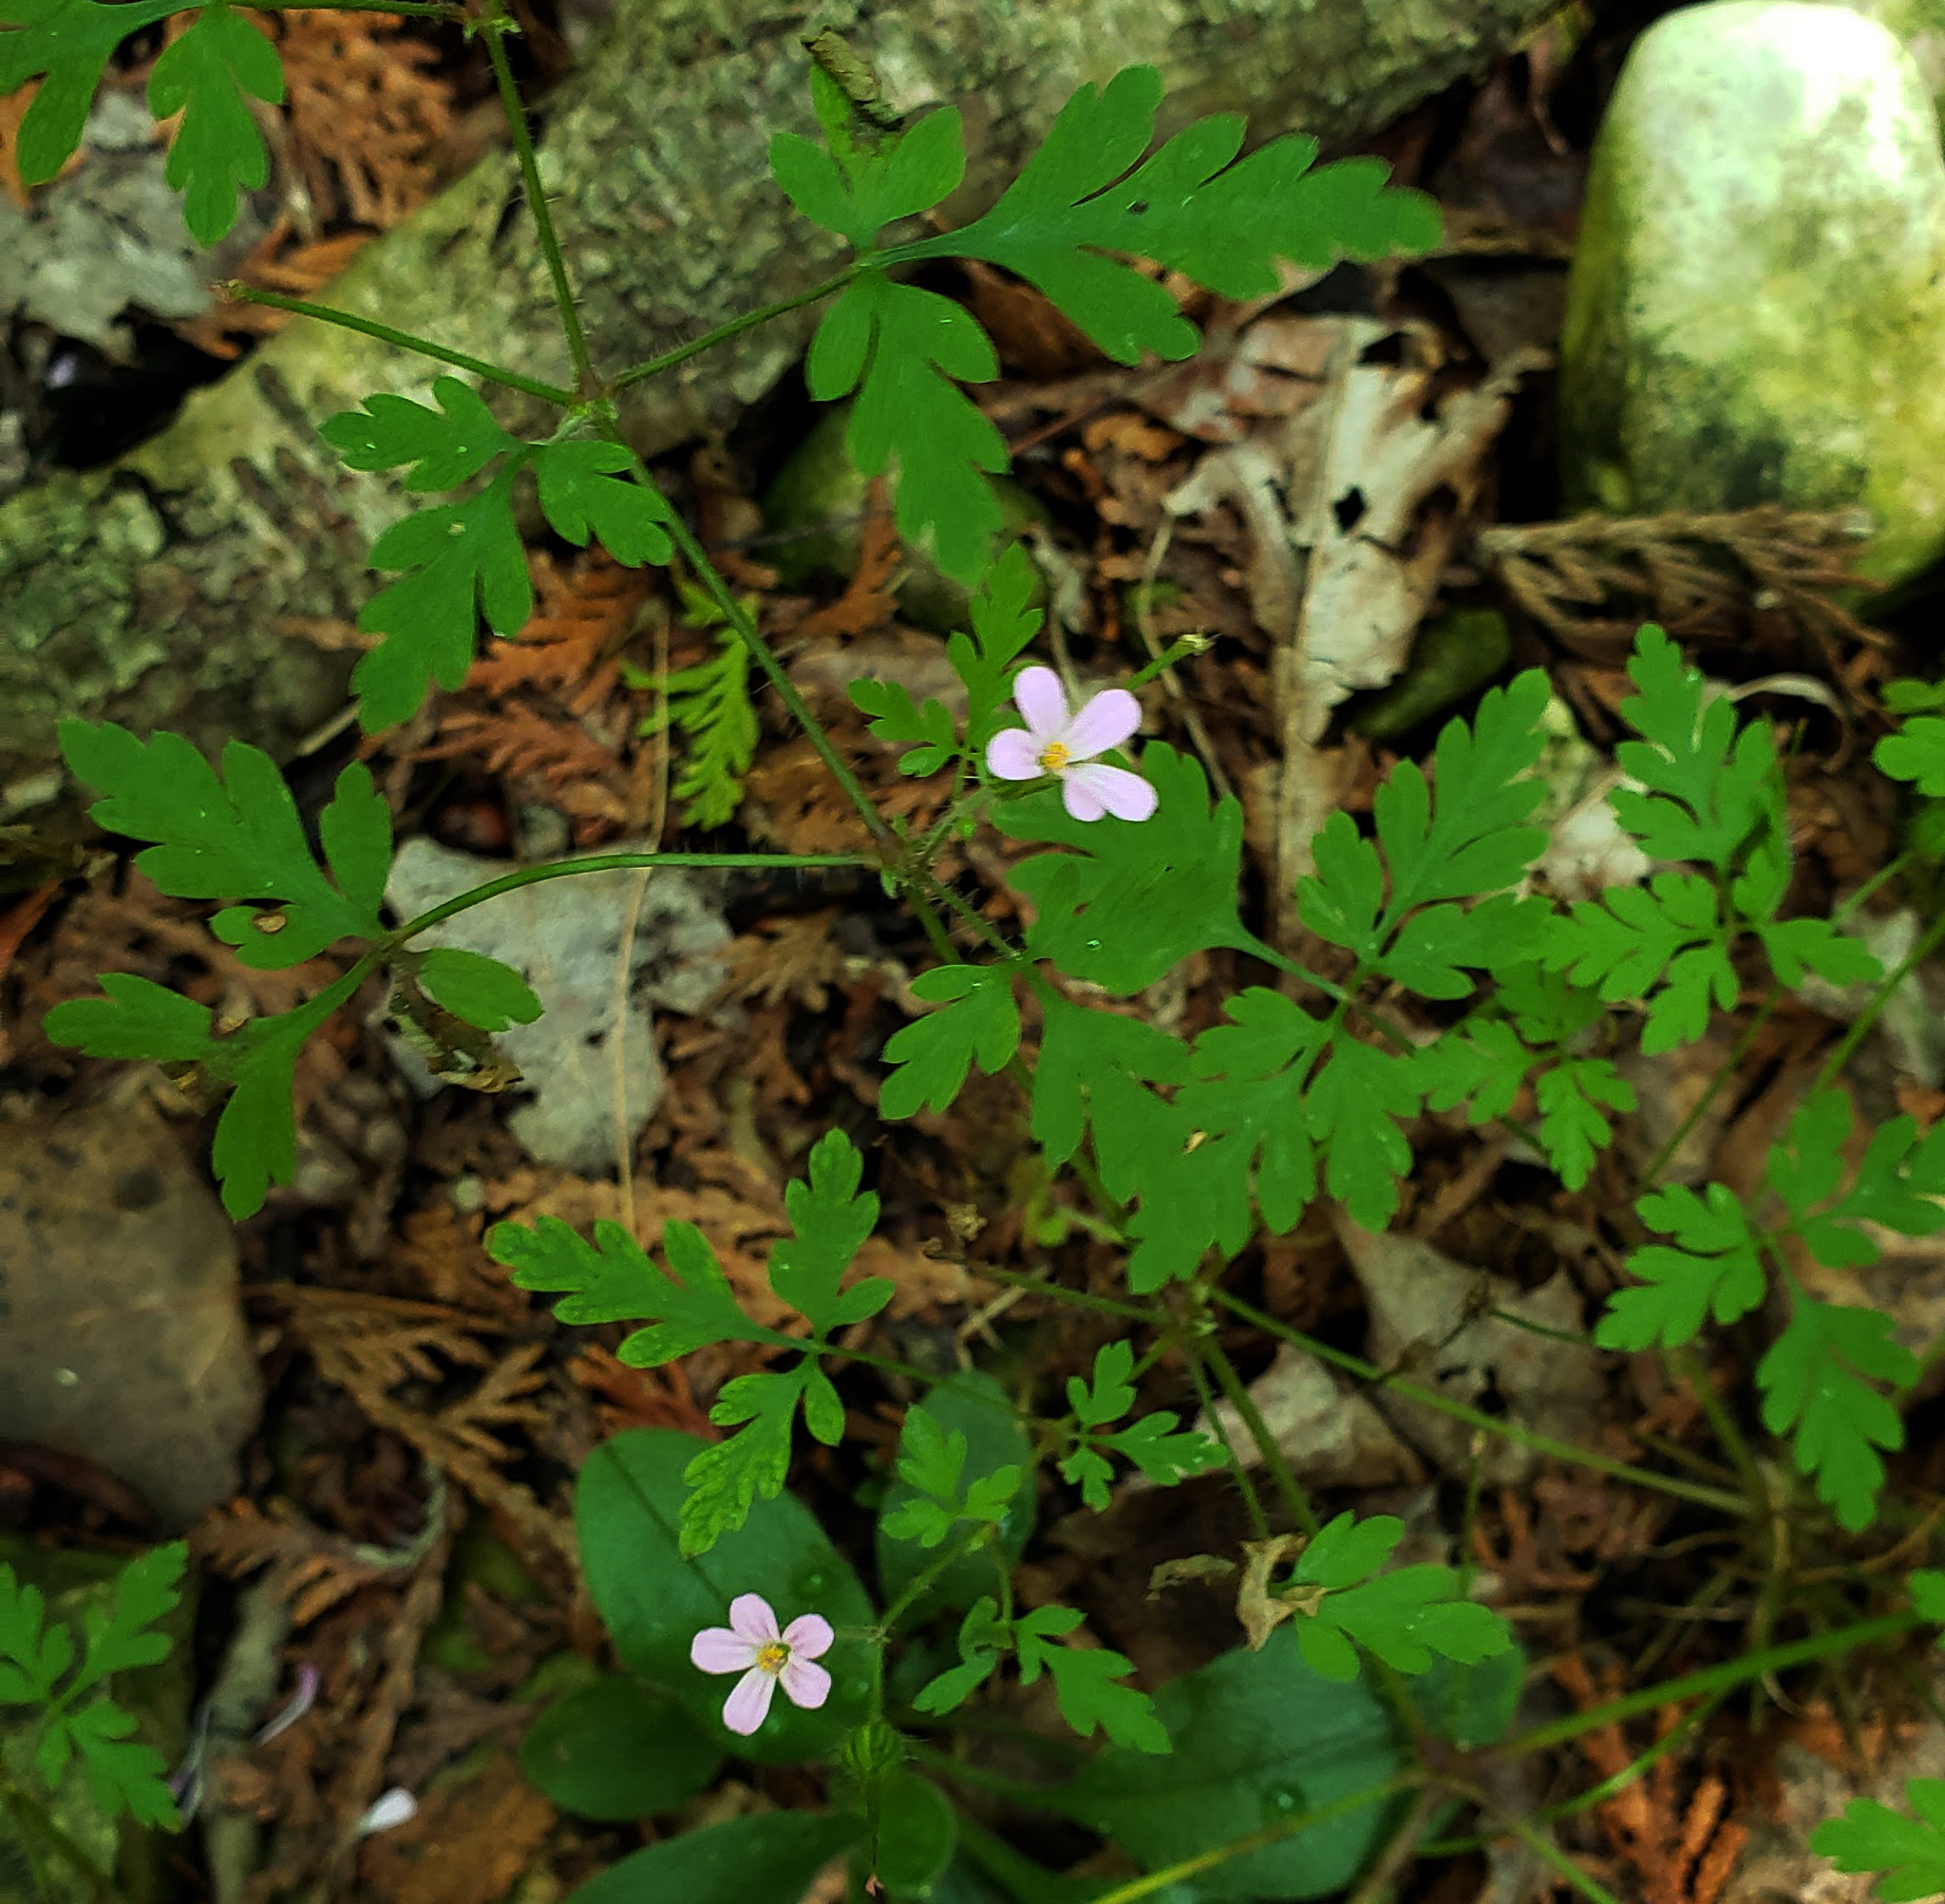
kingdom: Plantae
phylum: Tracheophyta
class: Magnoliopsida
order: Geraniales
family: Geraniaceae
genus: Geranium
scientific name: Geranium robertianum
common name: Herb-robert
